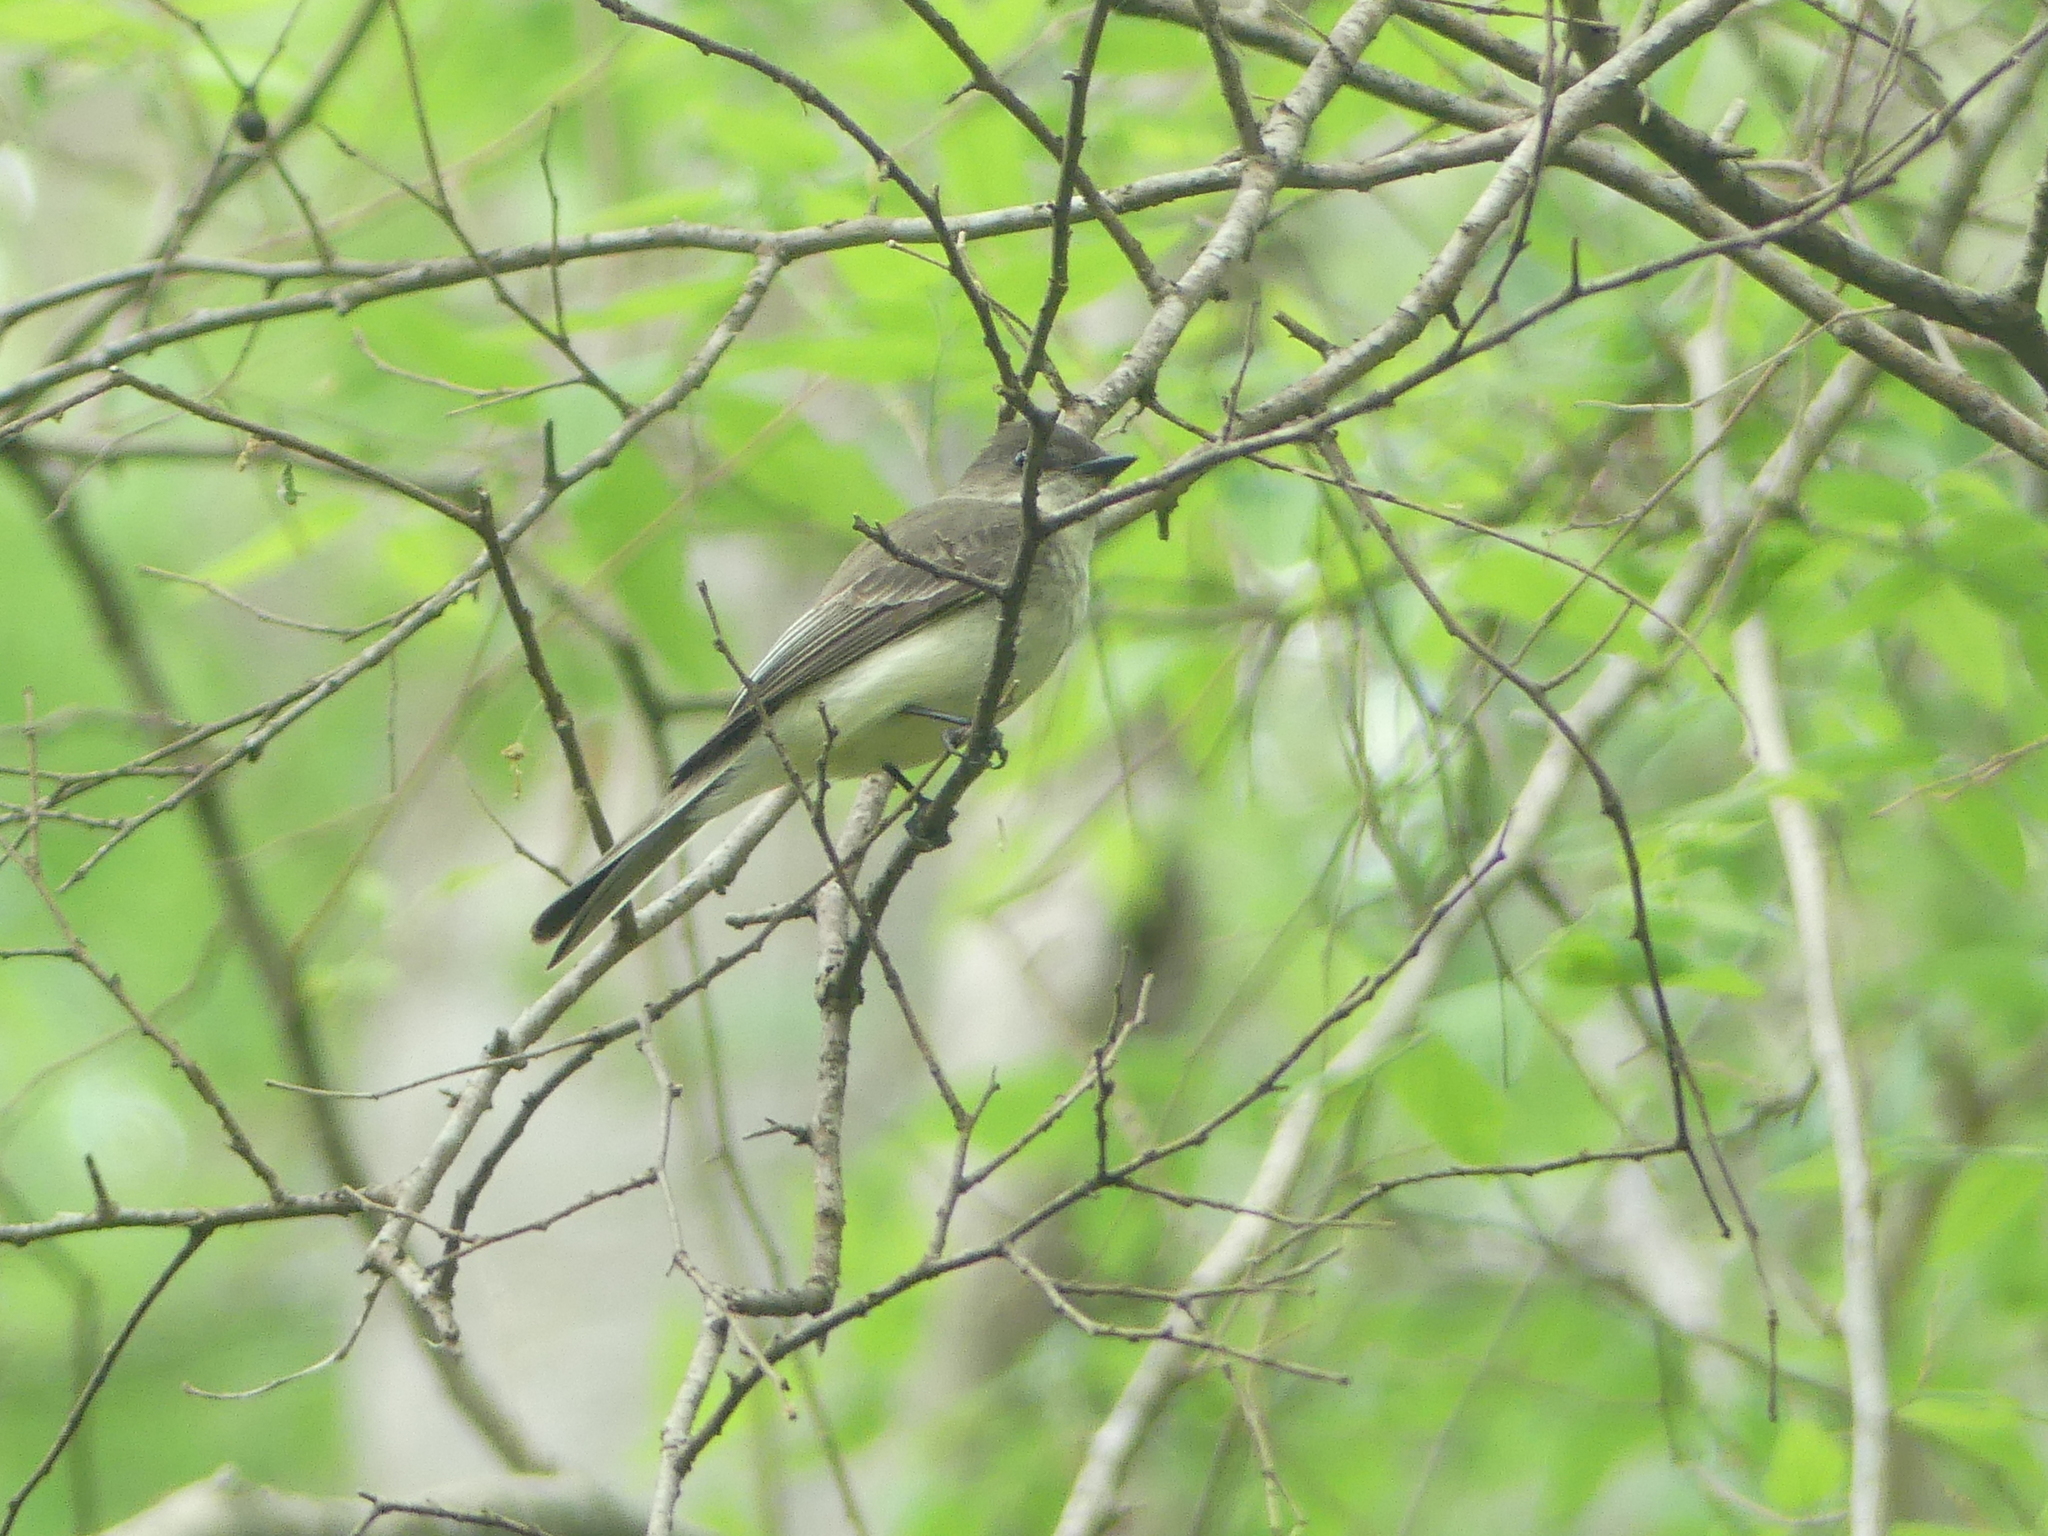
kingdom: Animalia
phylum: Chordata
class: Aves
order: Passeriformes
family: Tyrannidae
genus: Sayornis
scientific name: Sayornis phoebe
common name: Eastern phoebe
